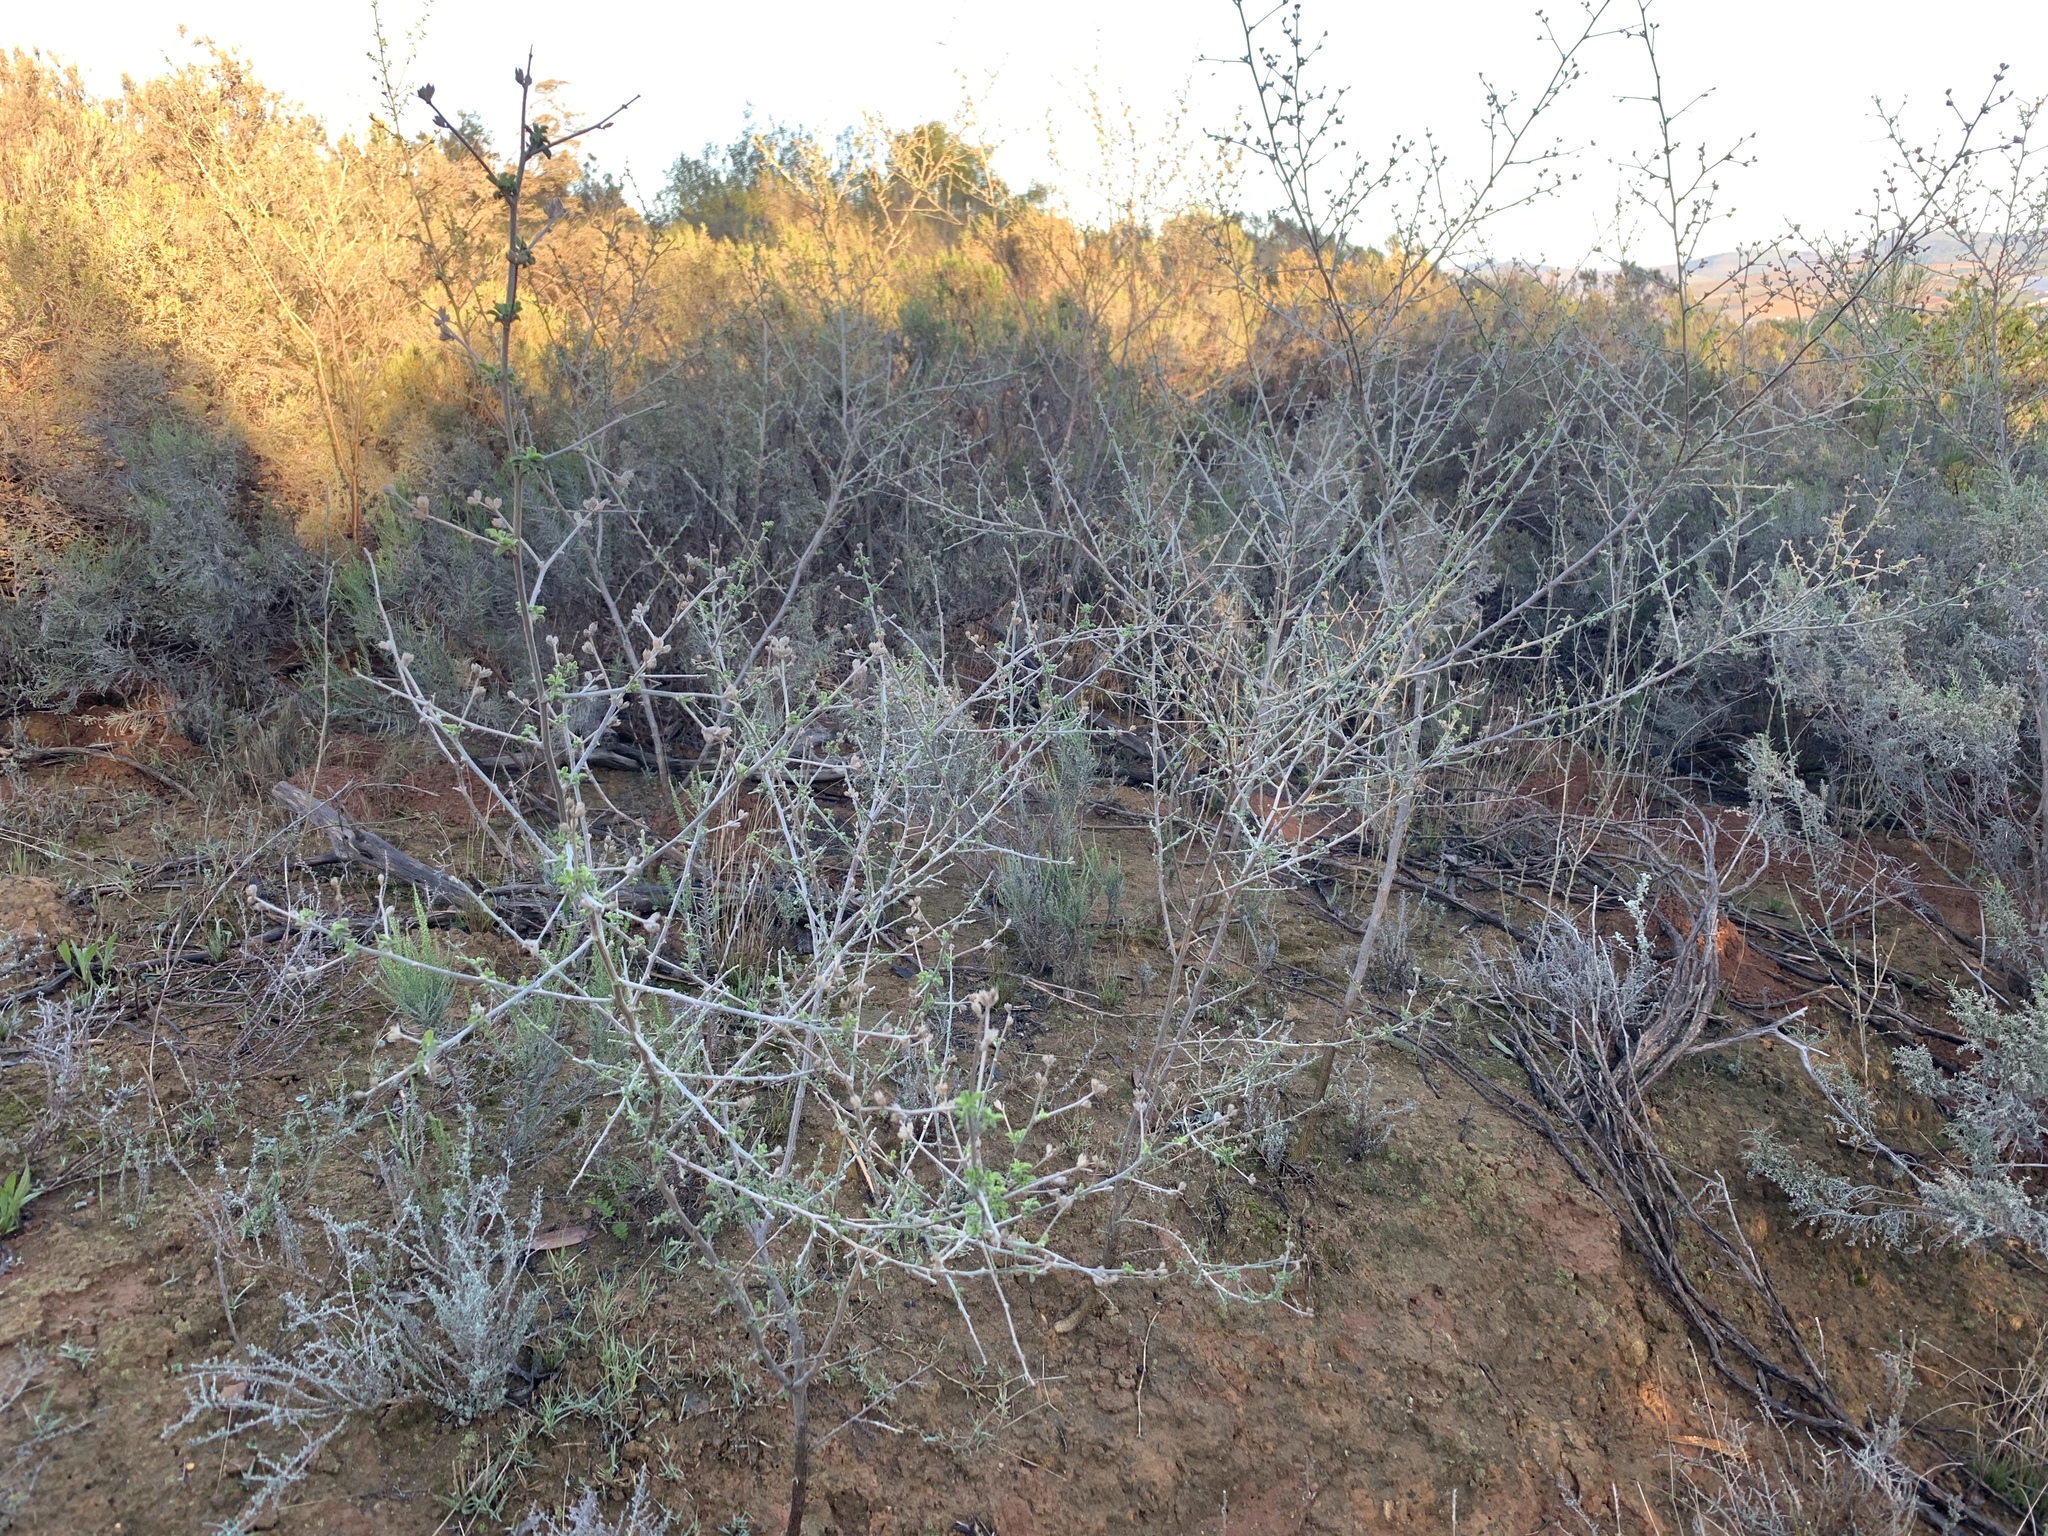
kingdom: Plantae
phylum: Tracheophyta
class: Magnoliopsida
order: Fabales
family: Fabaceae
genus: Psoralea
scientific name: Psoralea hirta
